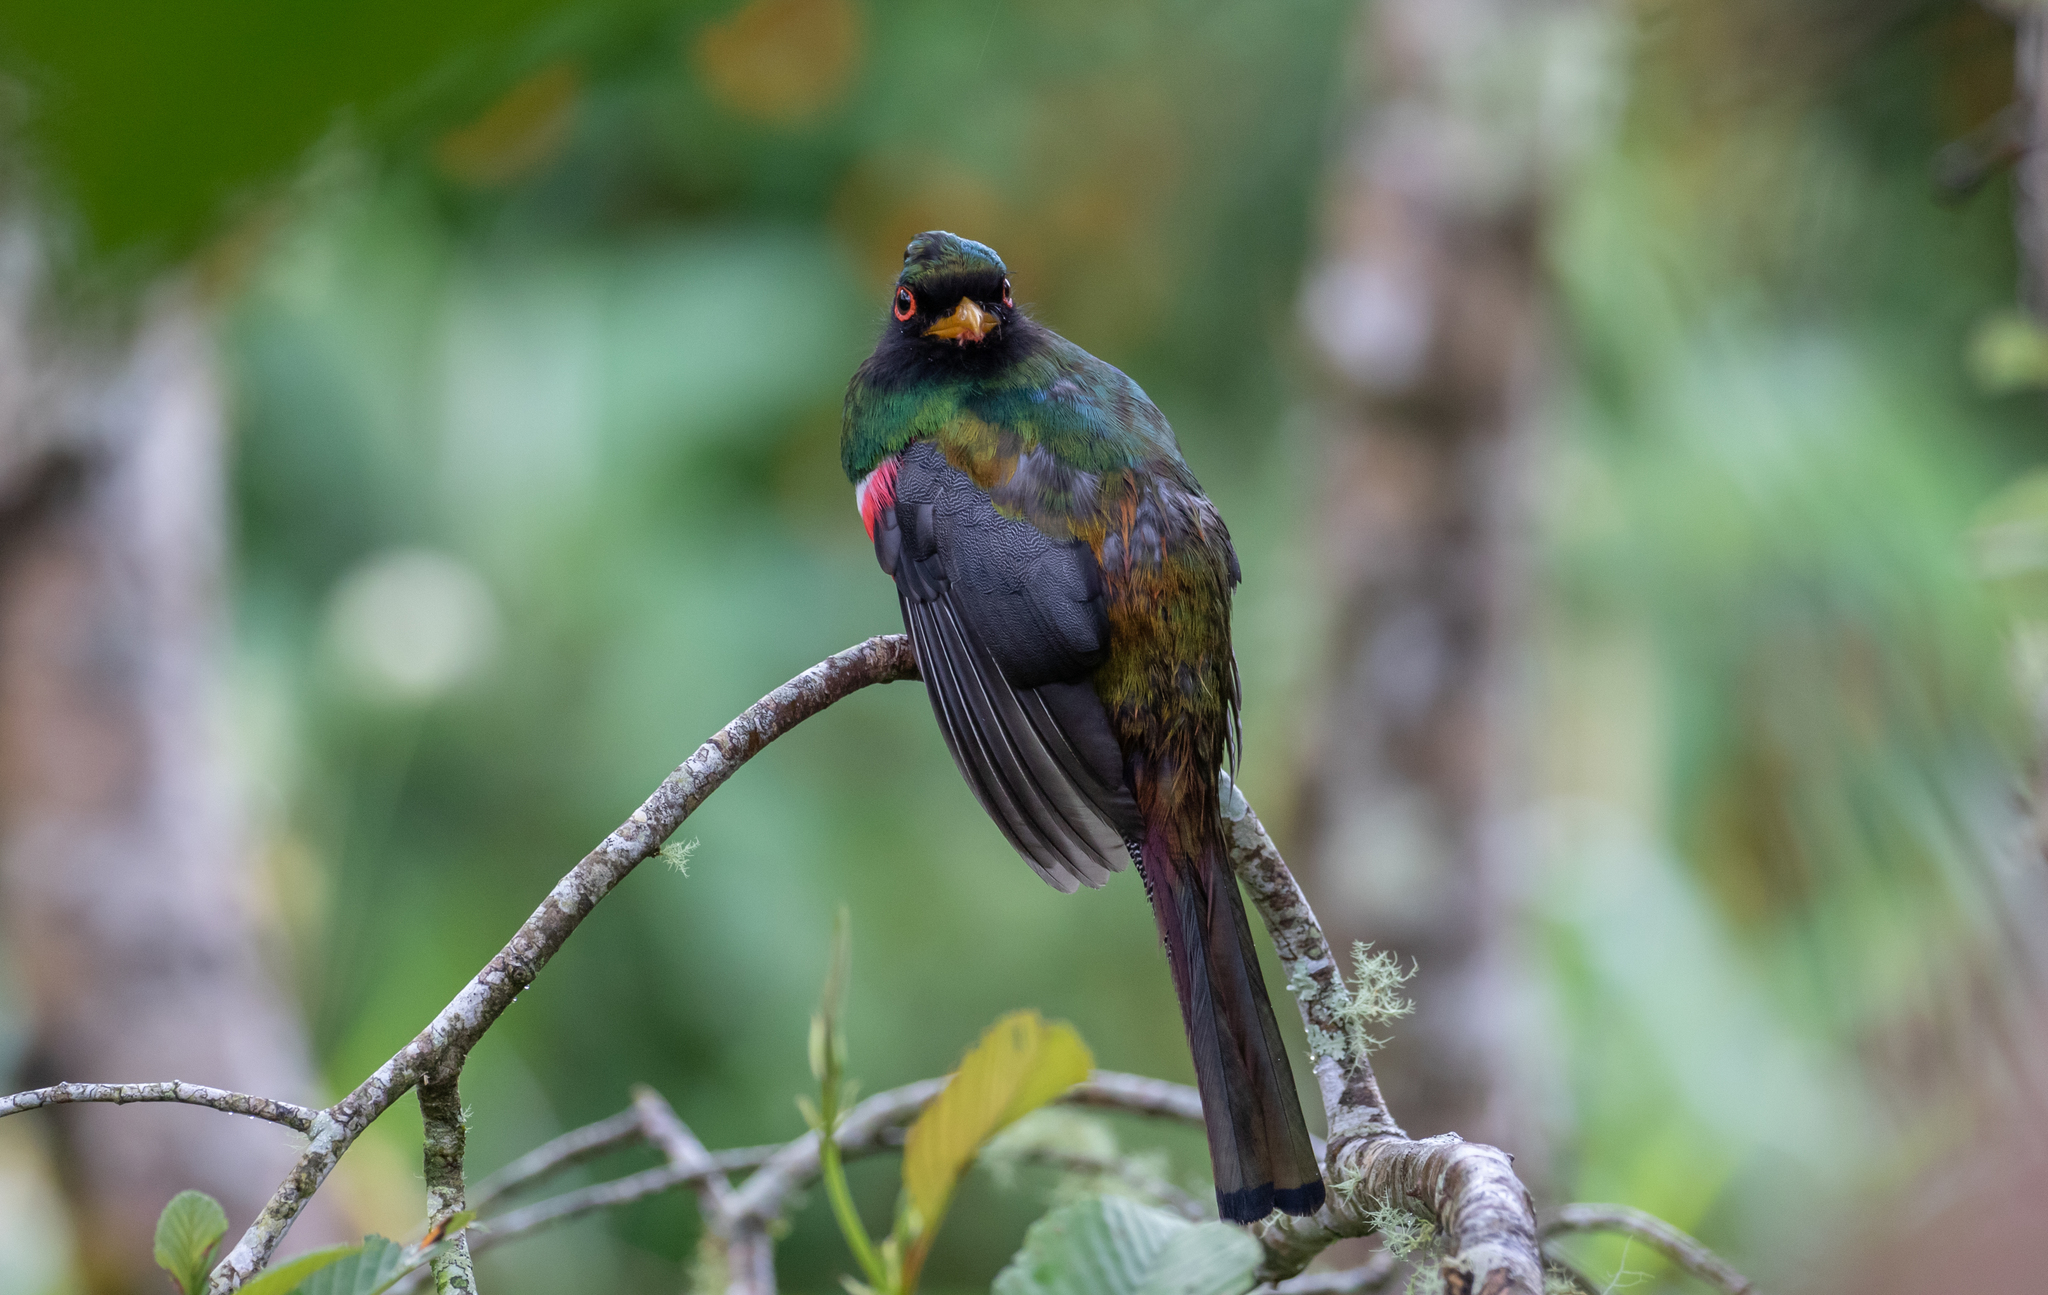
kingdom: Animalia
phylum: Chordata
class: Aves
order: Trogoniformes
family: Trogonidae
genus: Trogon
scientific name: Trogon personatus
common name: Masked trogon
